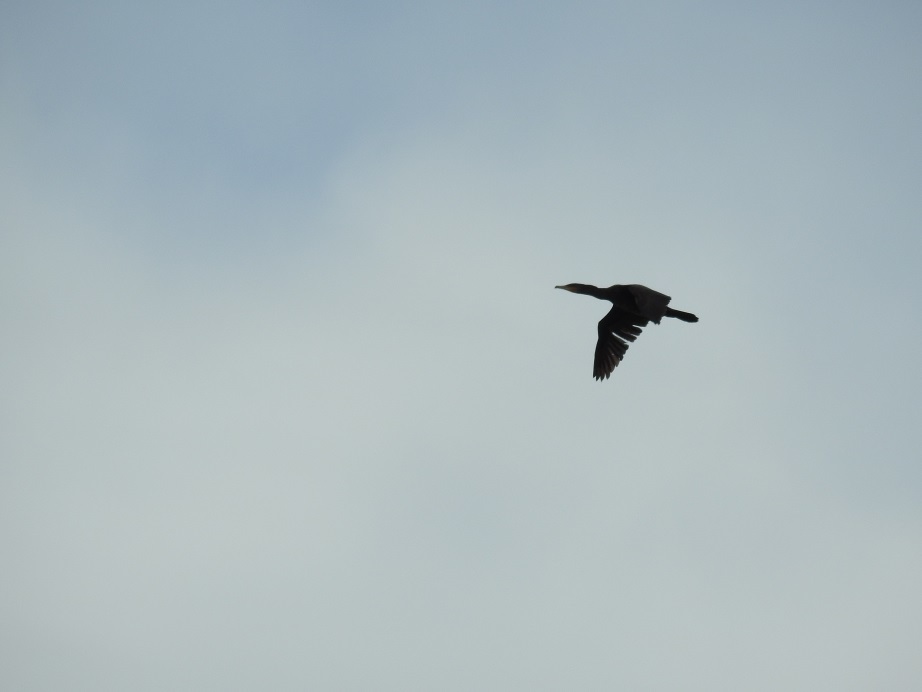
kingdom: Animalia
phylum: Chordata
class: Aves
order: Suliformes
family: Phalacrocoracidae
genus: Phalacrocorax
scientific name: Phalacrocorax carbo
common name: Great cormorant
